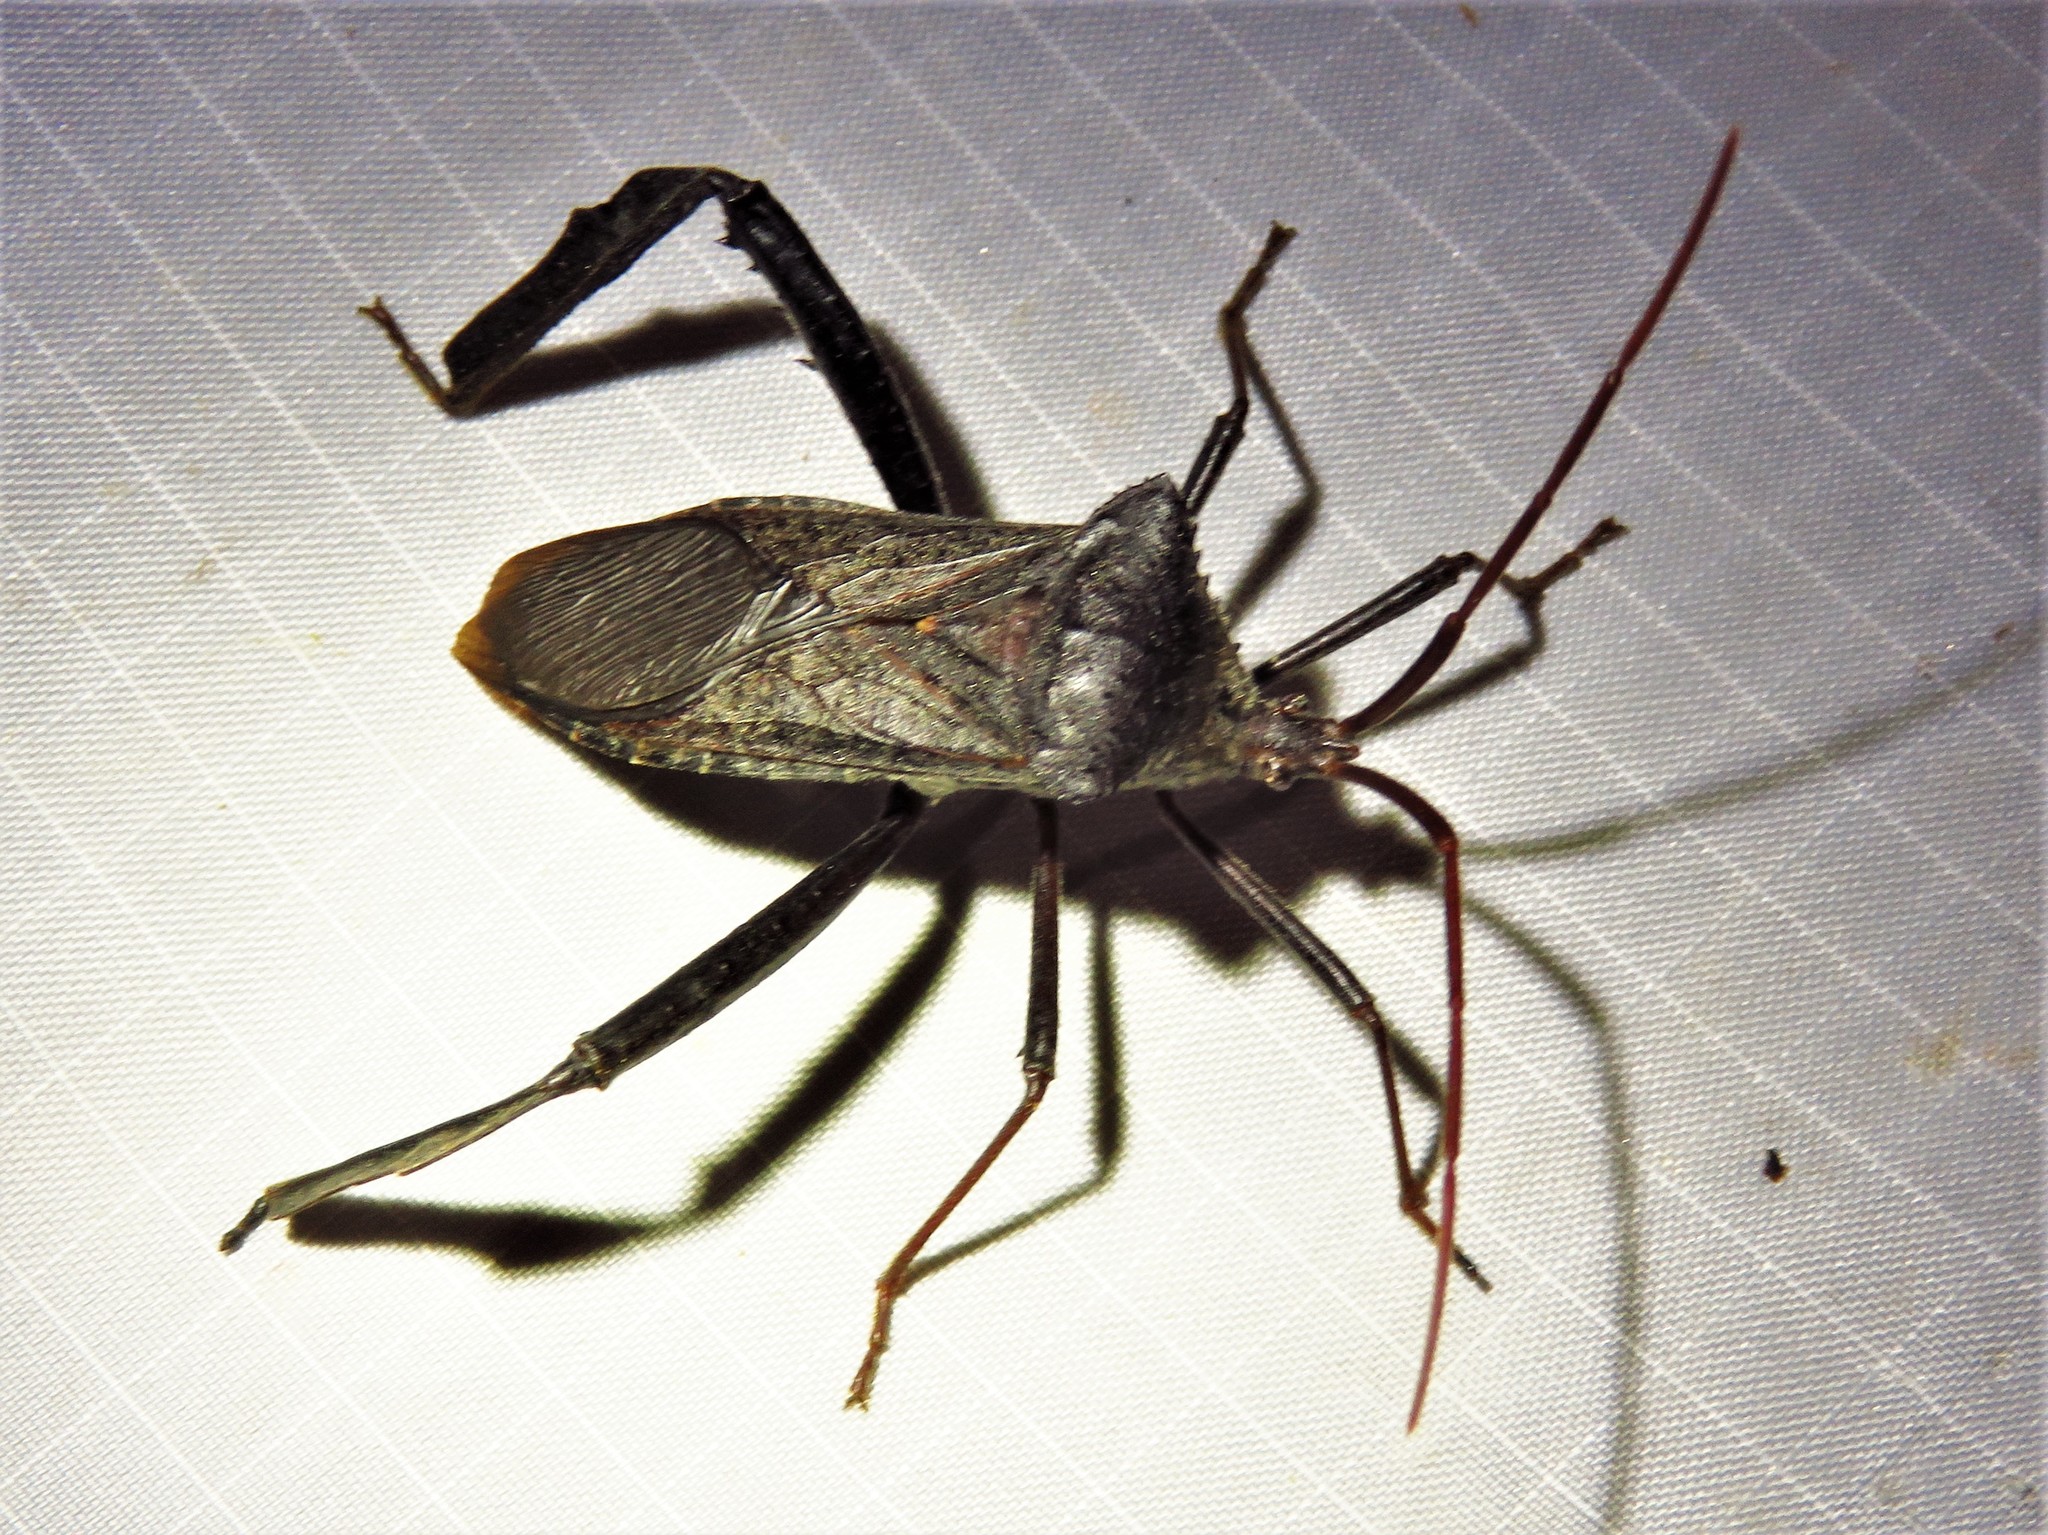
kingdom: Animalia
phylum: Arthropoda
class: Insecta
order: Hemiptera
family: Coreidae
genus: Acanthocephala
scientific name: Acanthocephala declivis
